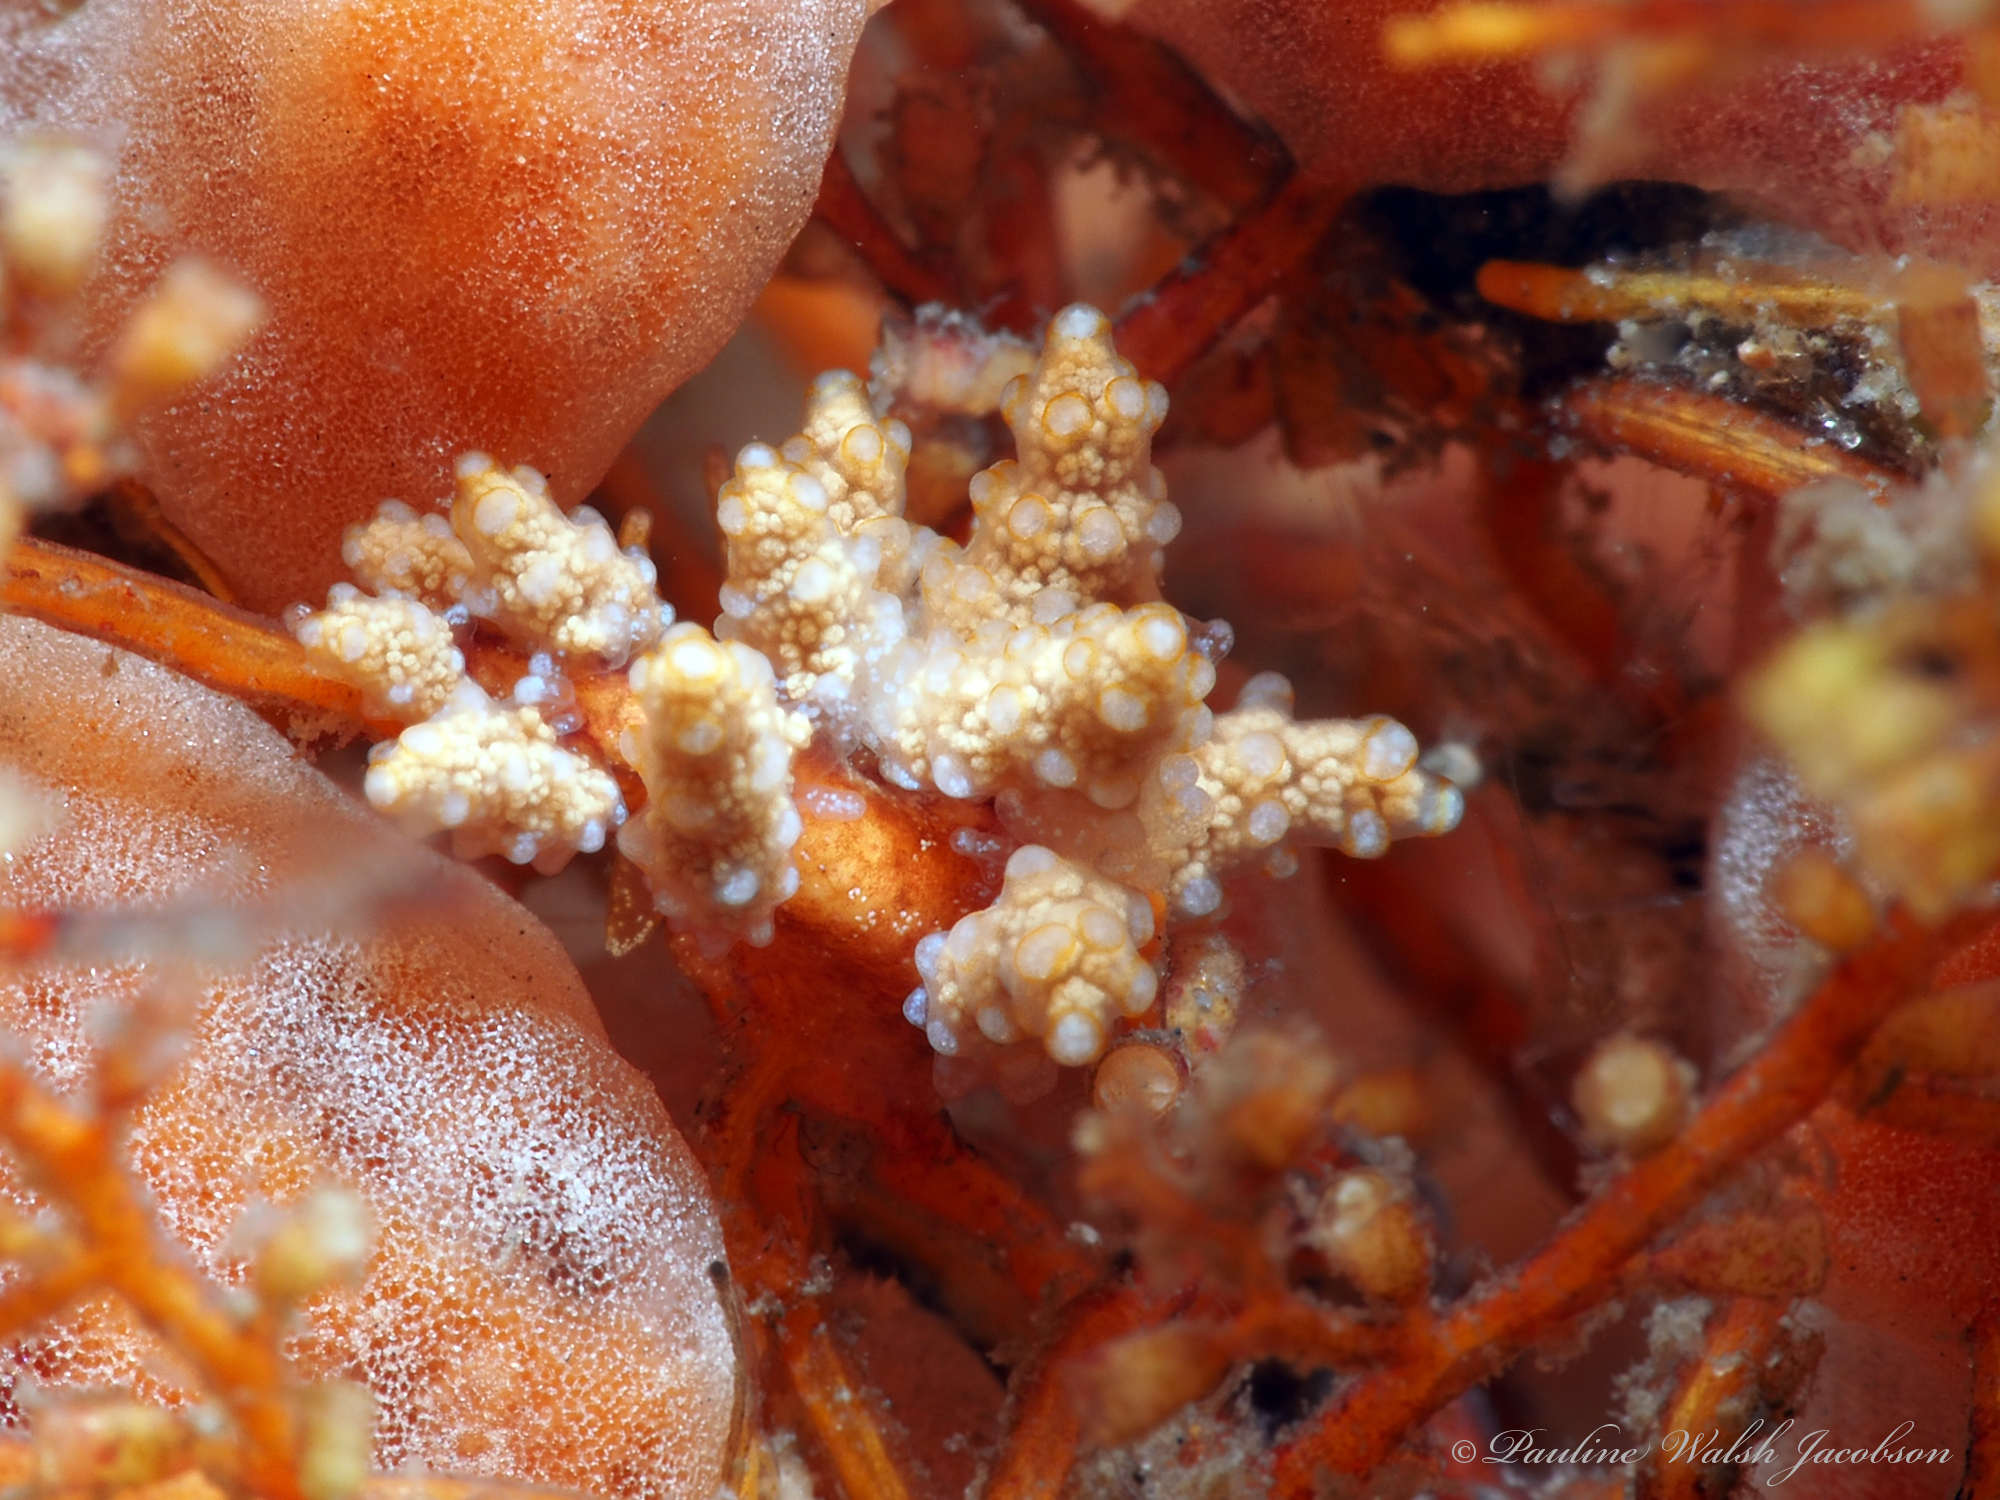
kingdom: Animalia
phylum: Mollusca
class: Gastropoda
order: Nudibranchia
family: Dotidae
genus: Doto
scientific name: Doto torrelavega
